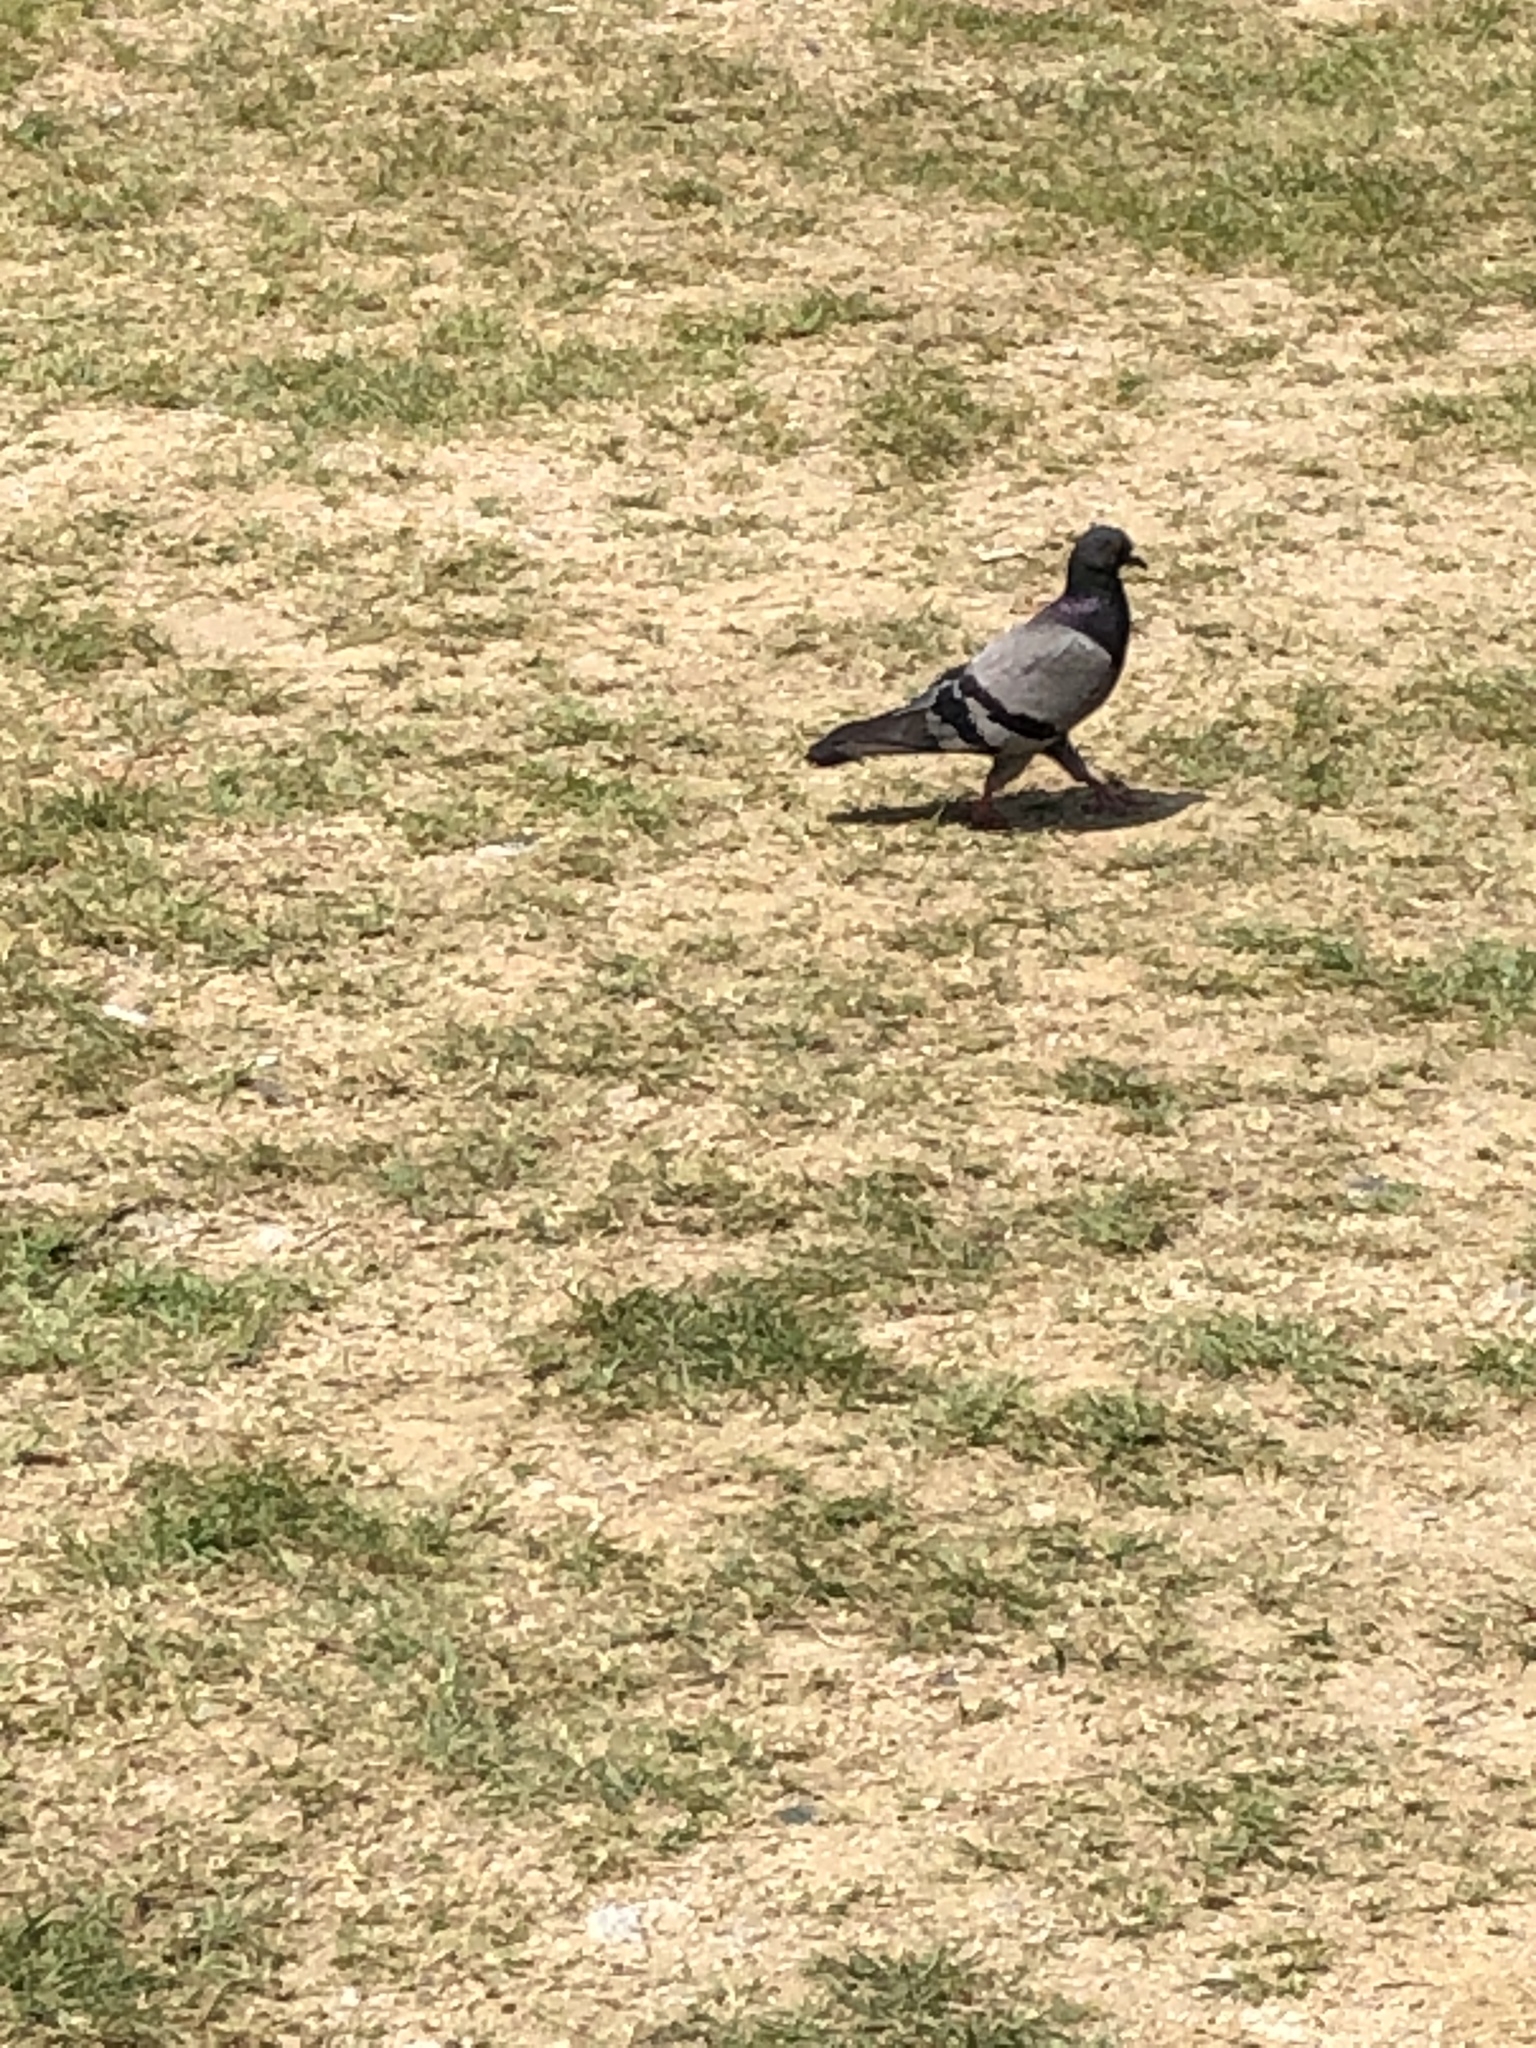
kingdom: Animalia
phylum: Chordata
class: Aves
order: Columbiformes
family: Columbidae
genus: Columba
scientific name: Columba livia
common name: Rock pigeon
